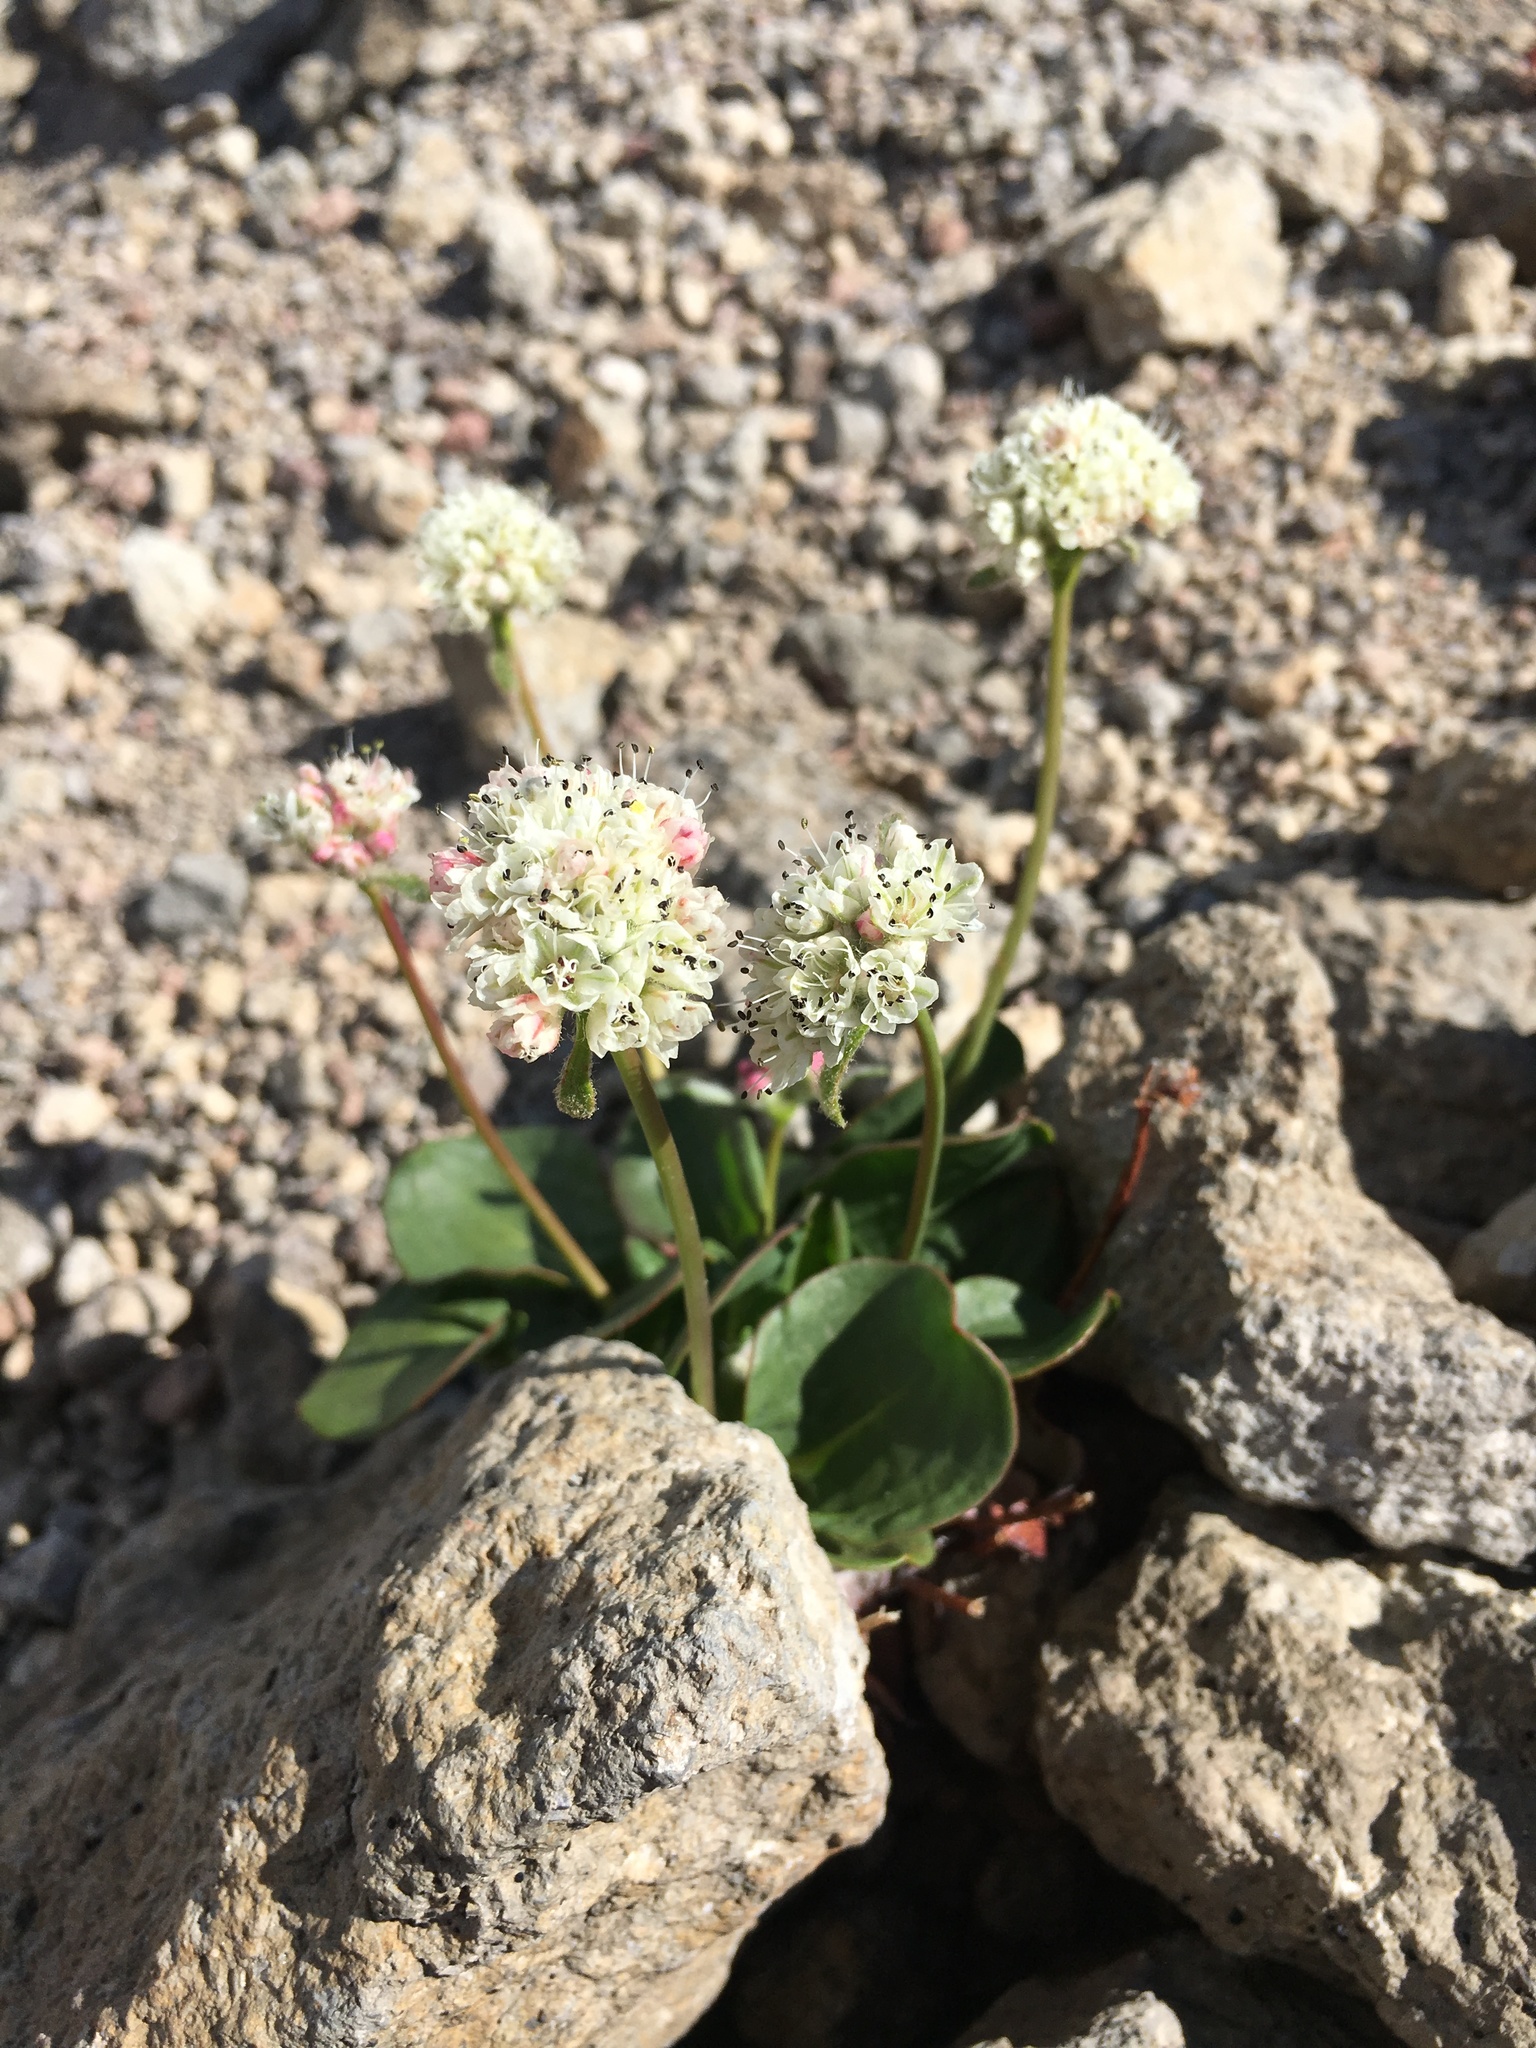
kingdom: Plantae
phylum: Tracheophyta
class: Magnoliopsida
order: Caryophyllales
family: Polygonaceae
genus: Eriogonum
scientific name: Eriogonum pyrolifolium
